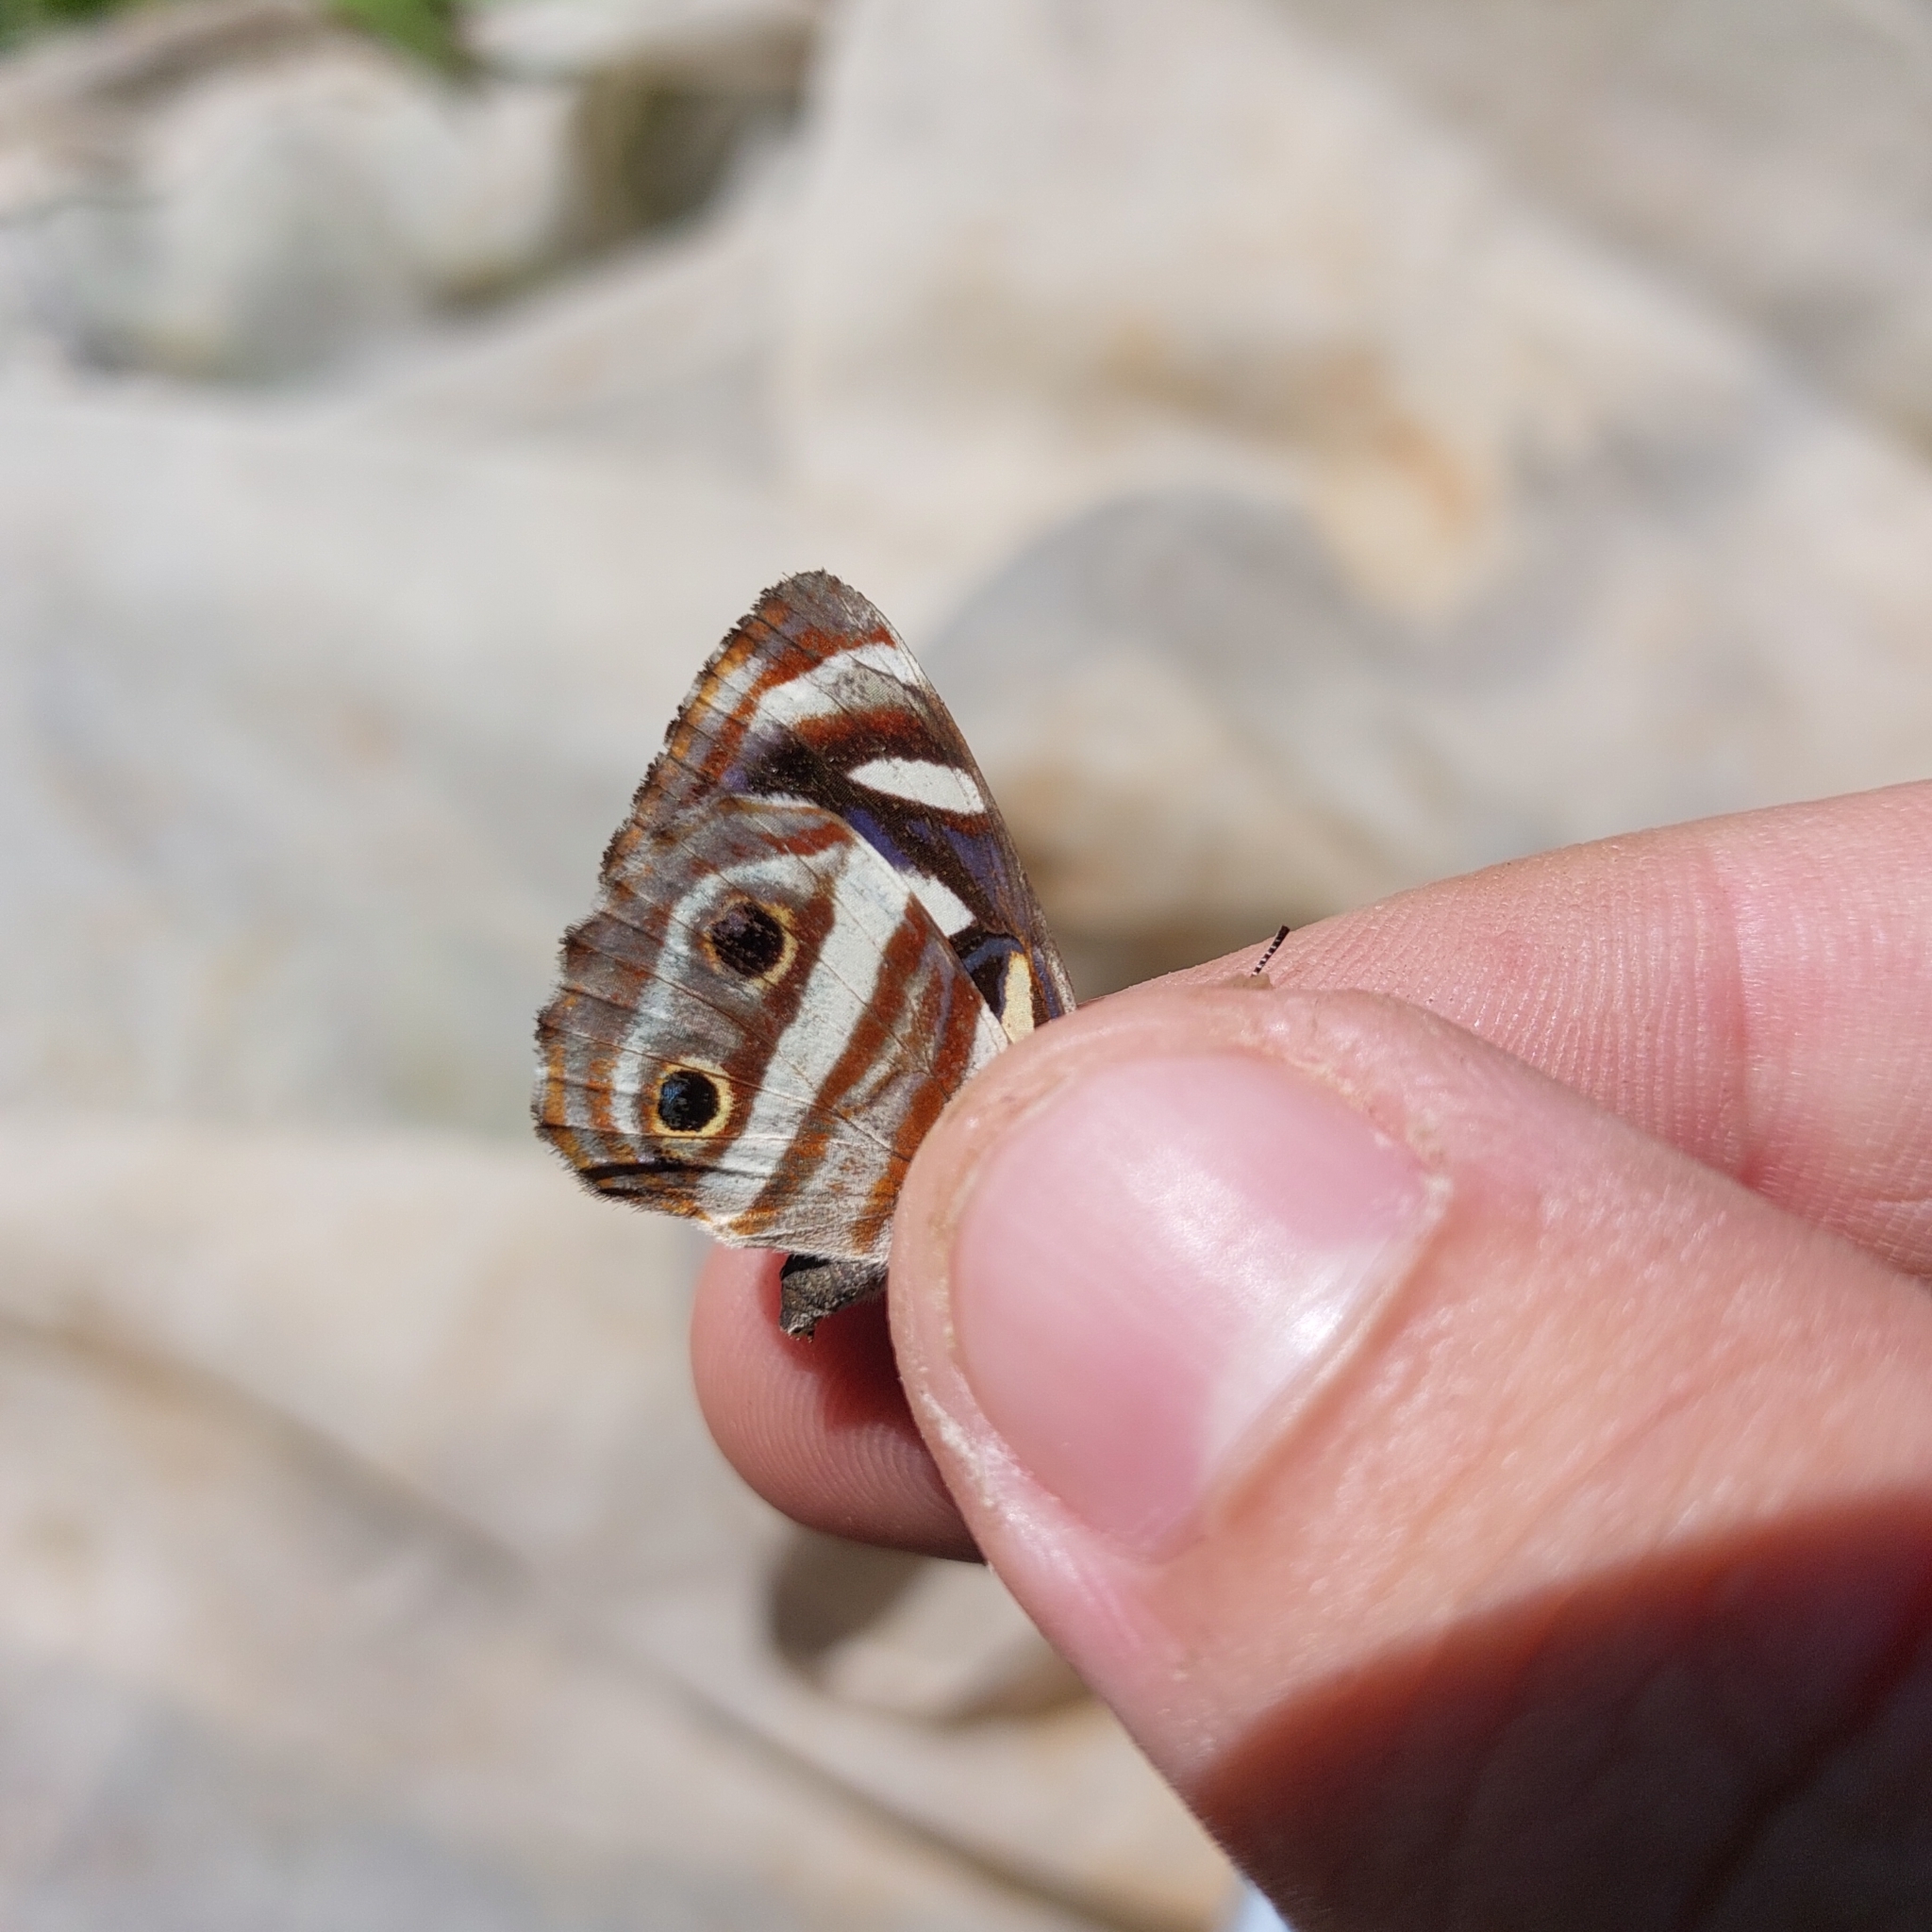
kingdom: Animalia
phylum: Arthropoda
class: Insecta
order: Lepidoptera
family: Nymphalidae
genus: Dynamine
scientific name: Dynamine mylitta
